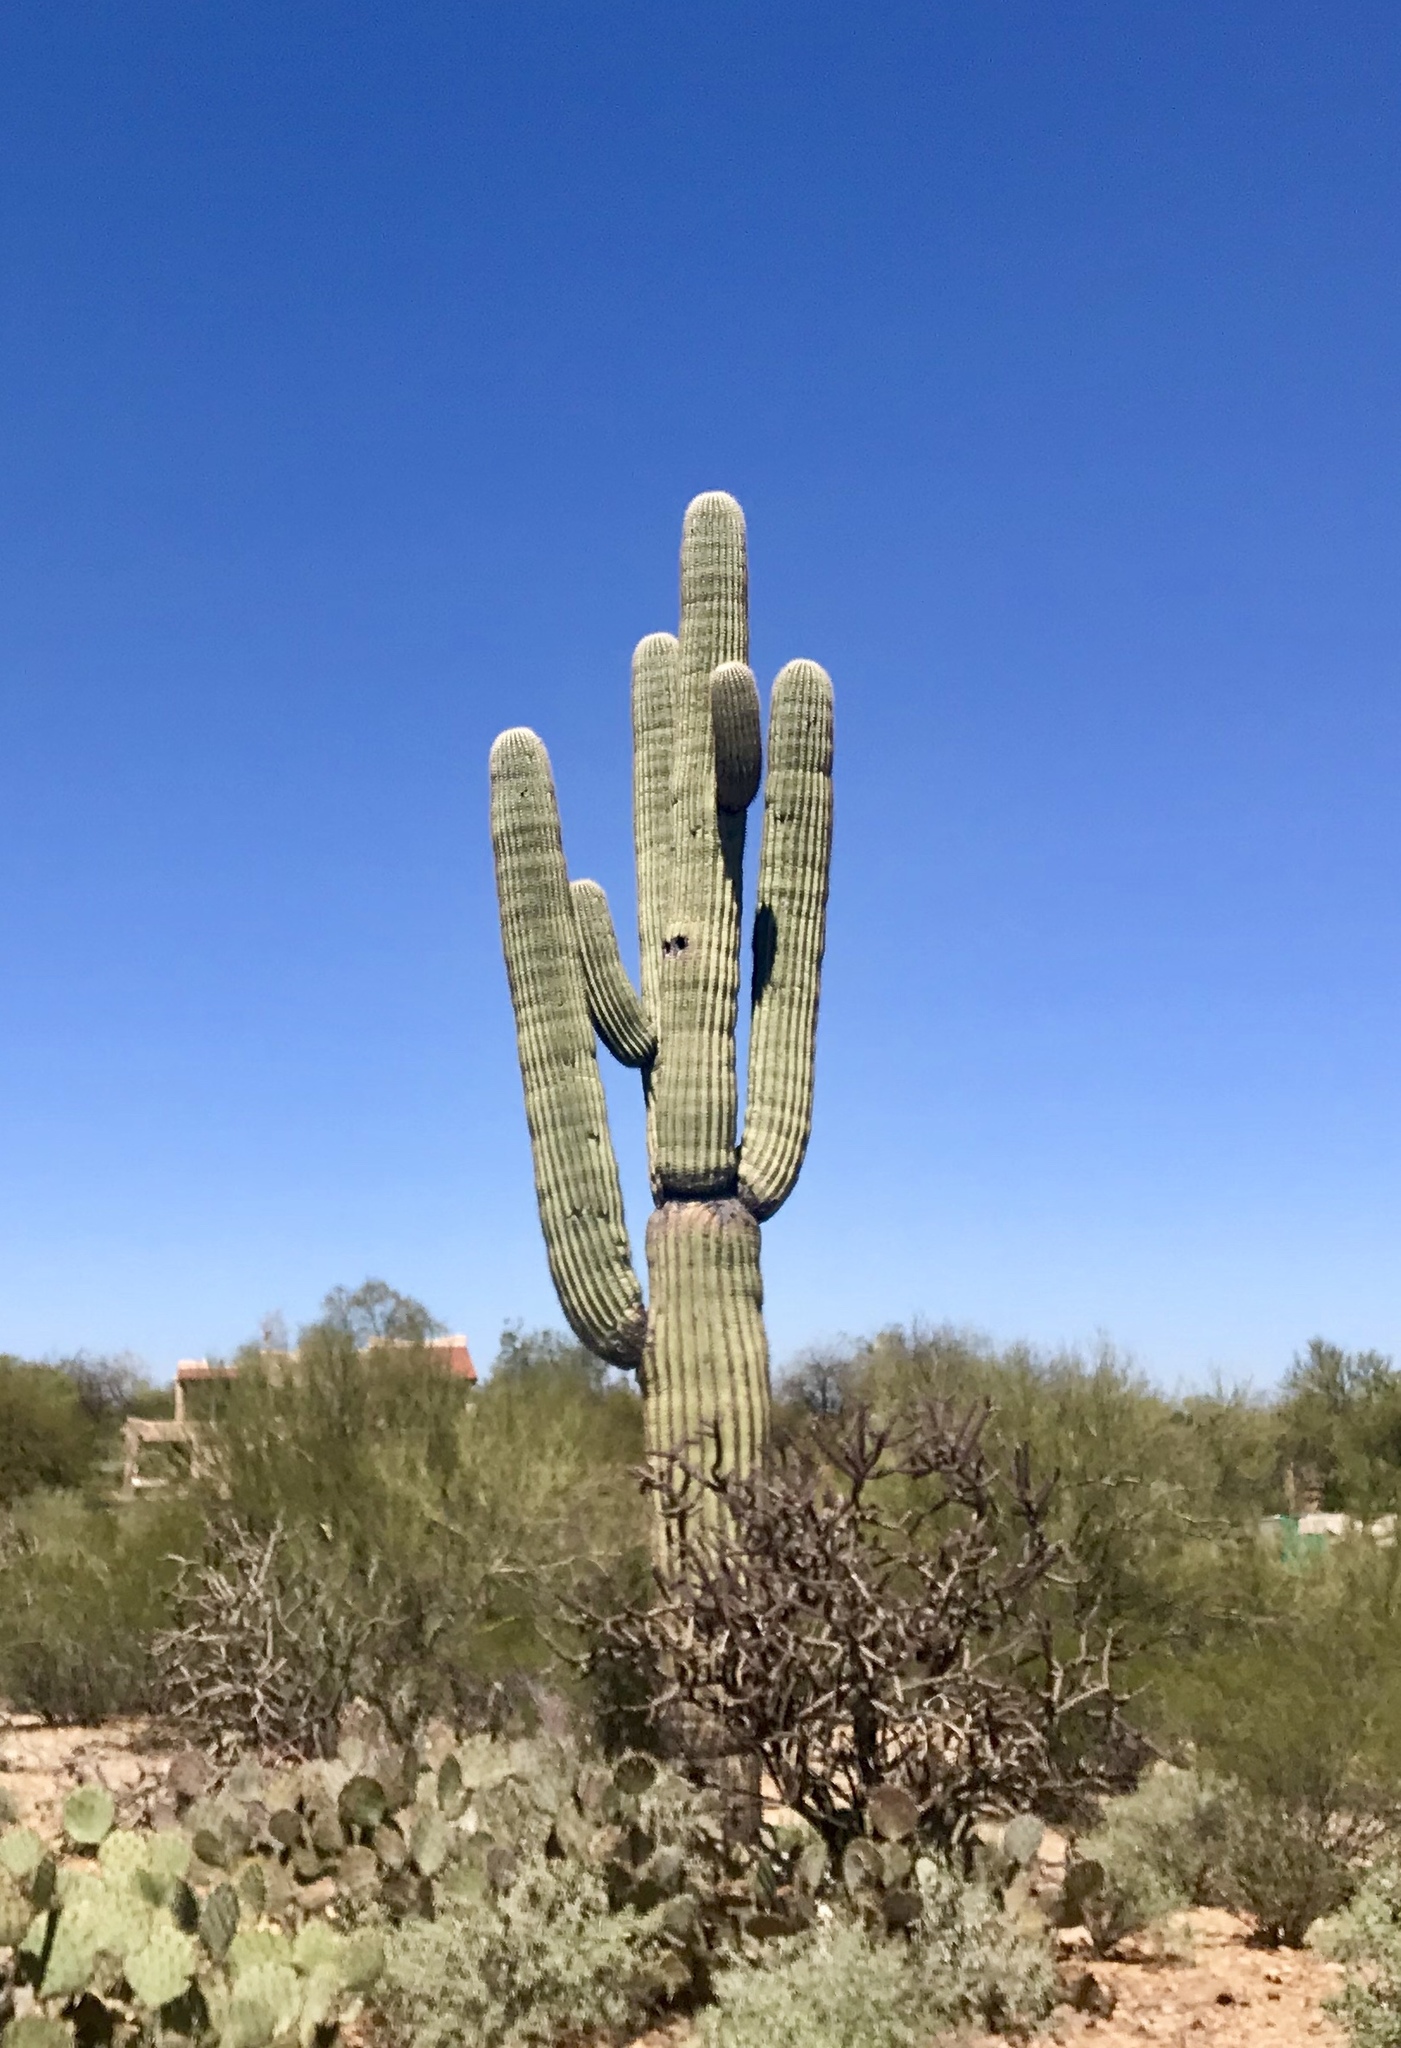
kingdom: Plantae
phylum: Tracheophyta
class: Magnoliopsida
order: Caryophyllales
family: Cactaceae
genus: Carnegiea
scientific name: Carnegiea gigantea
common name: Saguaro
